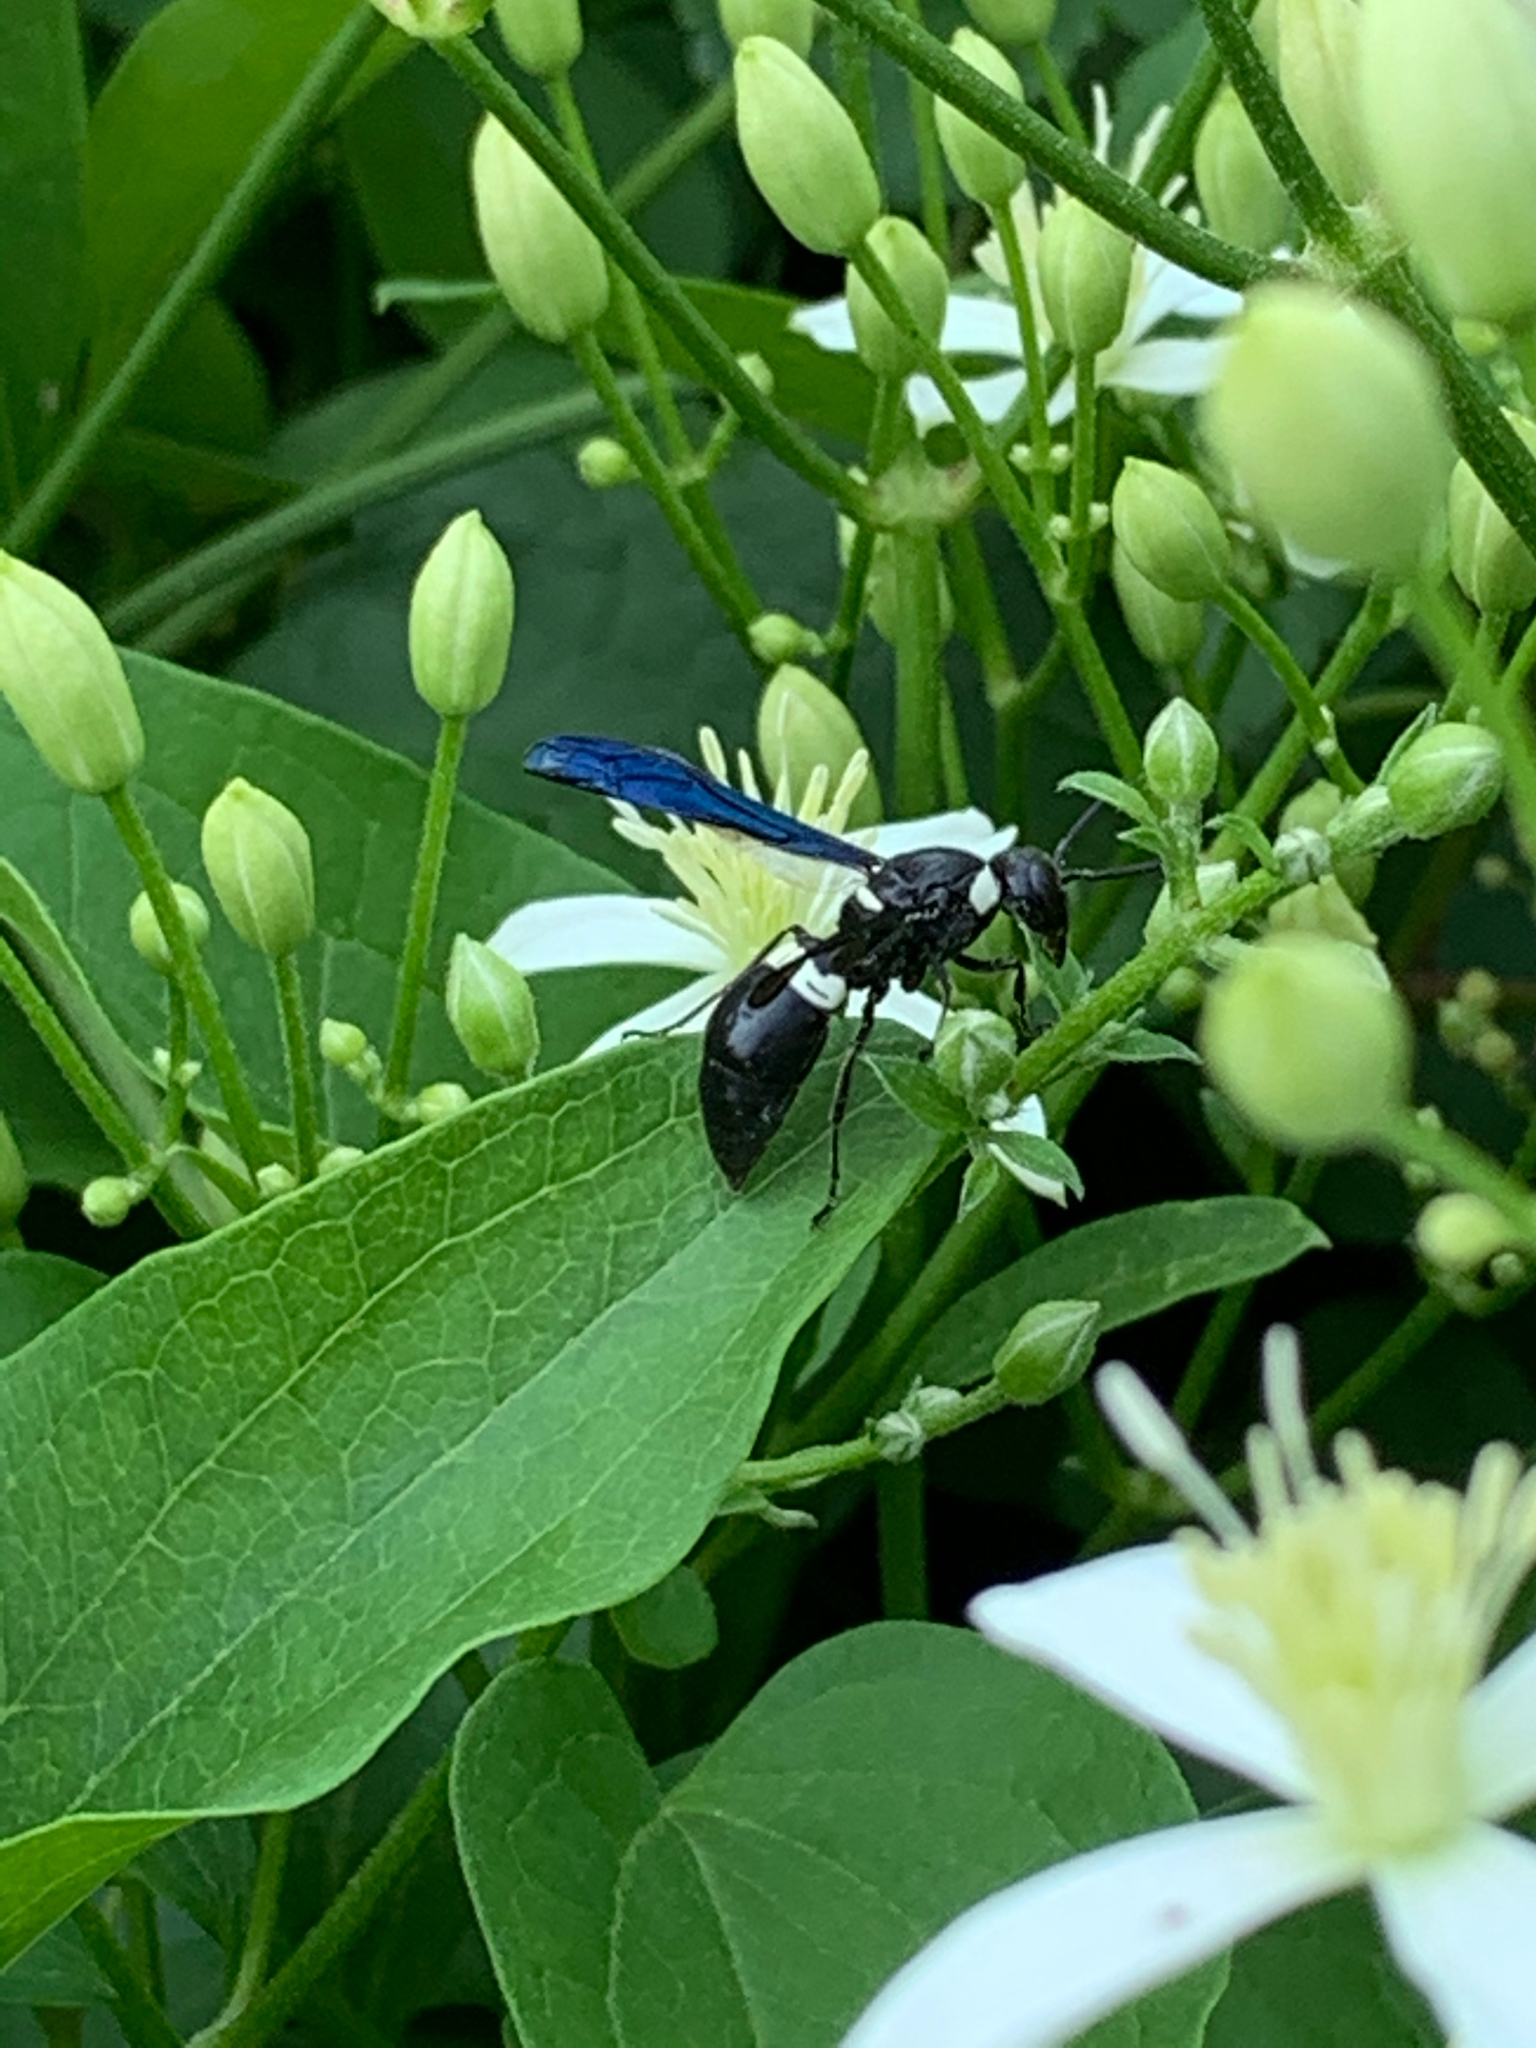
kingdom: Animalia
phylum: Arthropoda
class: Insecta
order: Hymenoptera
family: Eumenidae
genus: Monobia
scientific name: Monobia quadridens
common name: Four-toothed mason wasp
